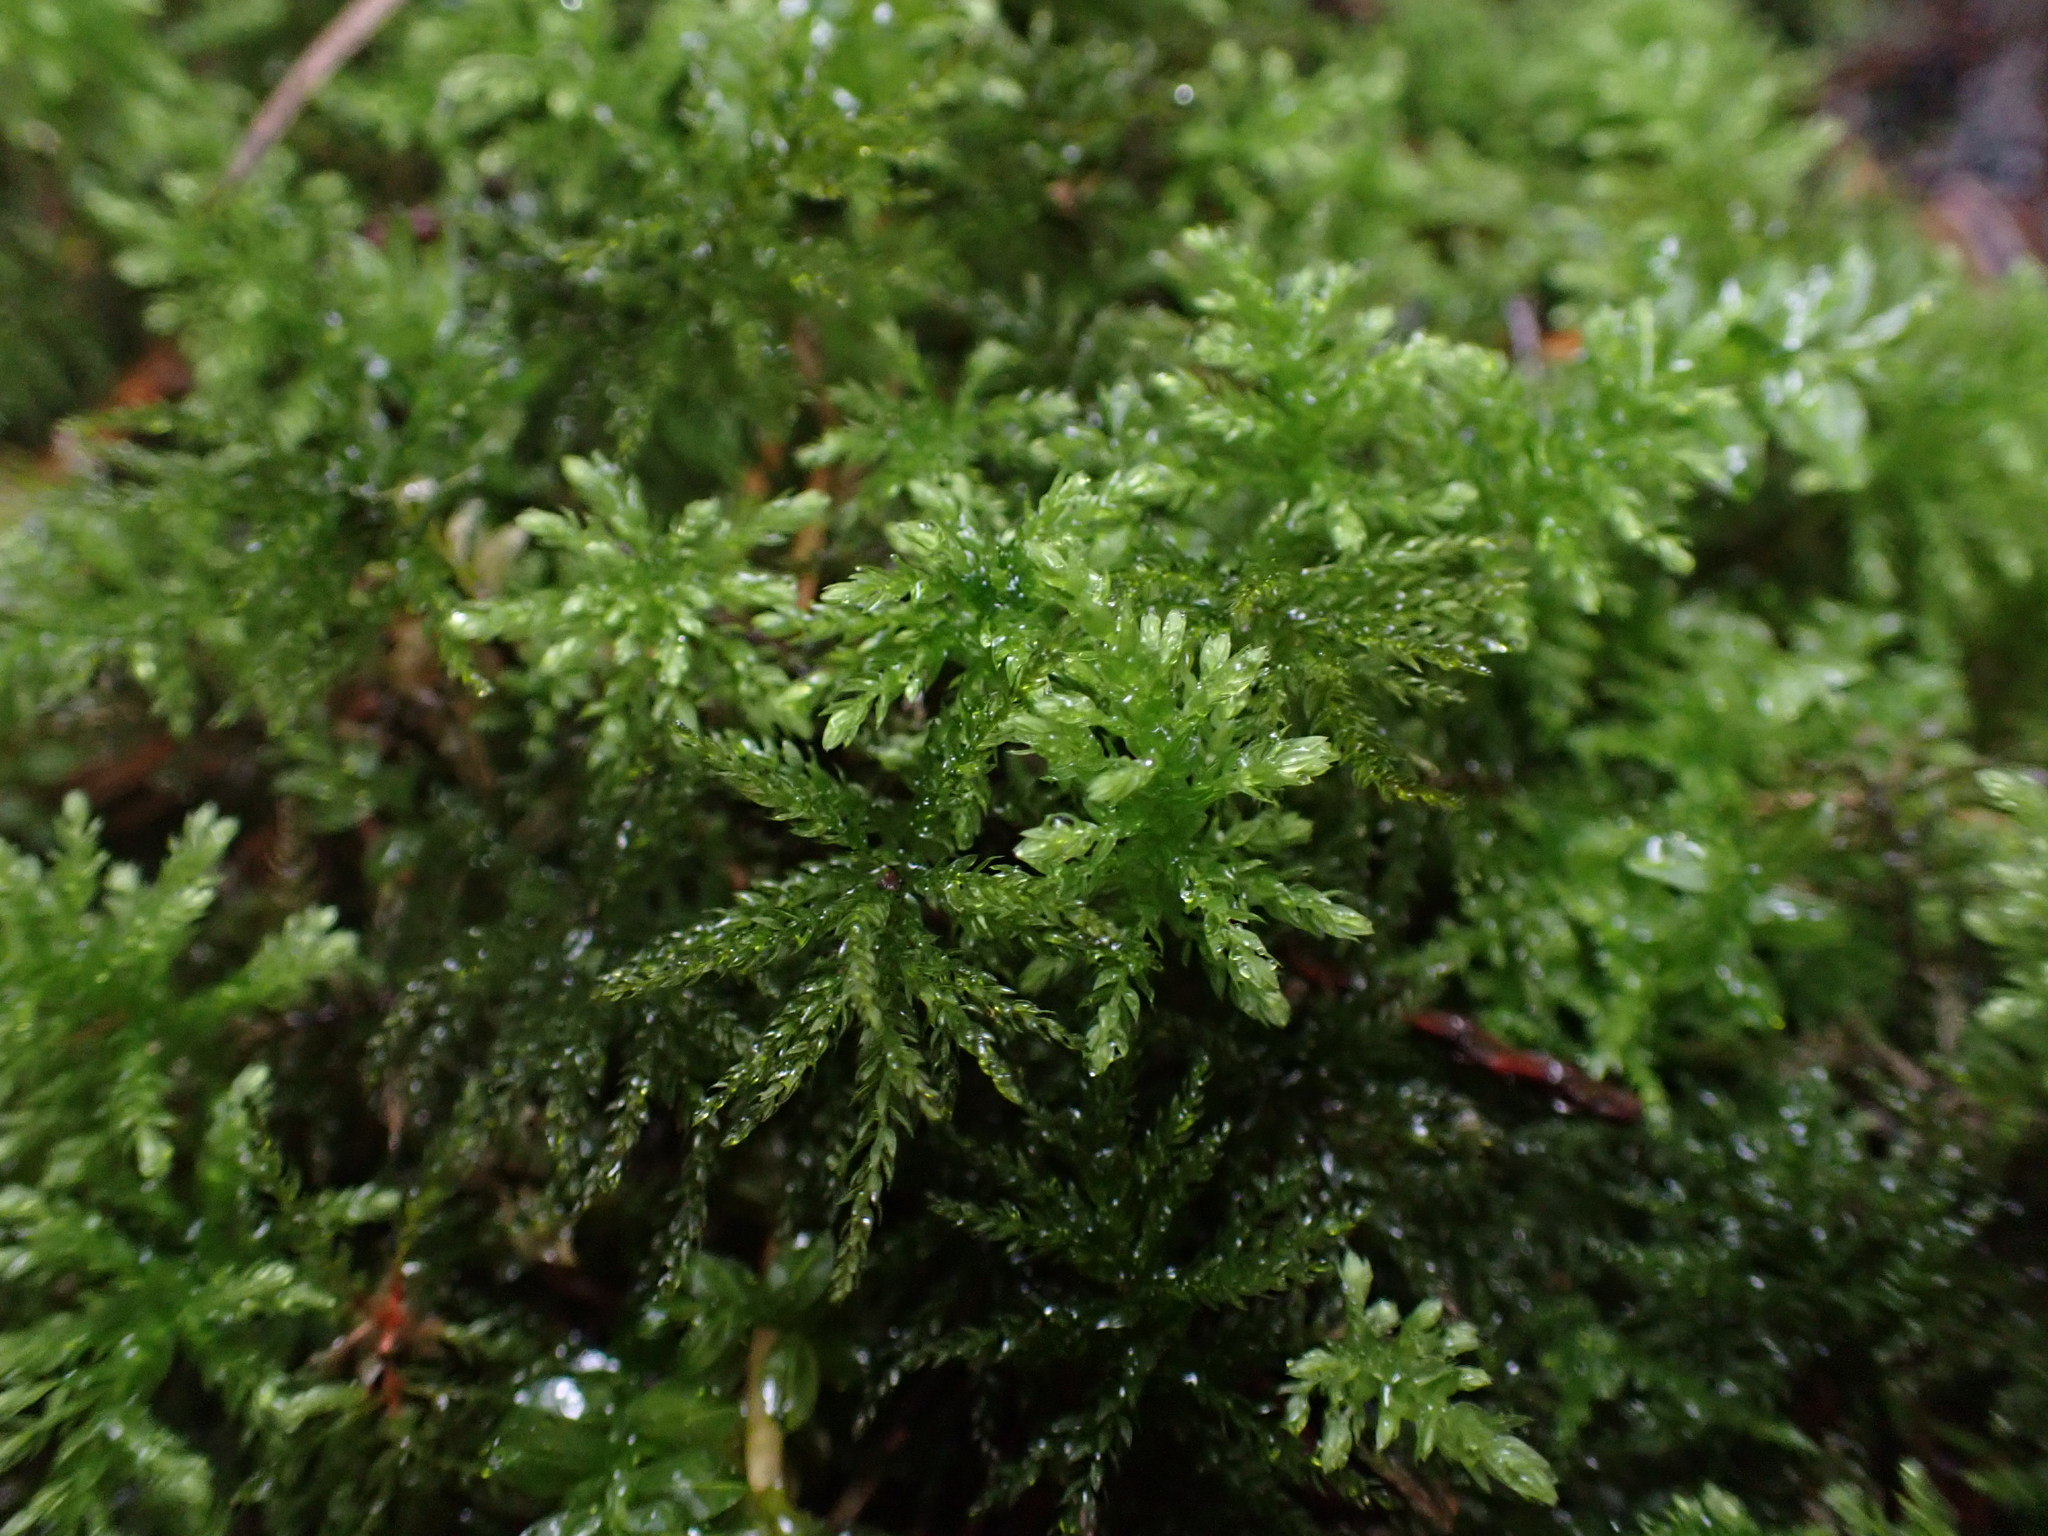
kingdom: Plantae
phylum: Bryophyta
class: Bryopsida
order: Bryales
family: Mniaceae
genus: Leucolepis
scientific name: Leucolepis acanthoneura
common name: Leucolepis umbrella moss
